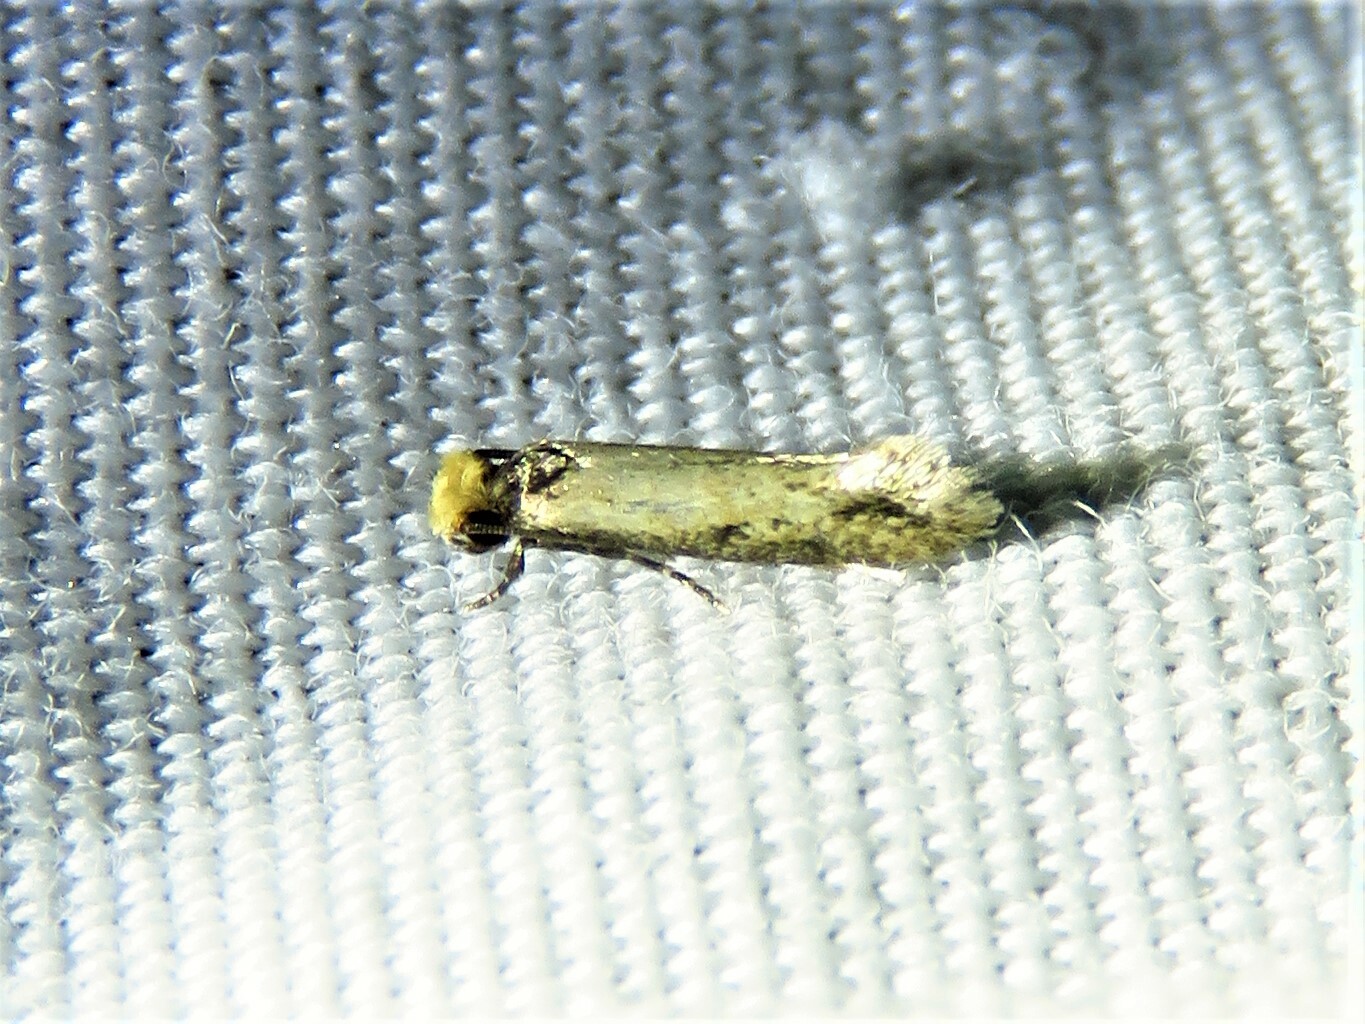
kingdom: Animalia
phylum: Arthropoda
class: Insecta
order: Lepidoptera
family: Meessiidae
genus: Homostinea
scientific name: Homostinea curviliniella
